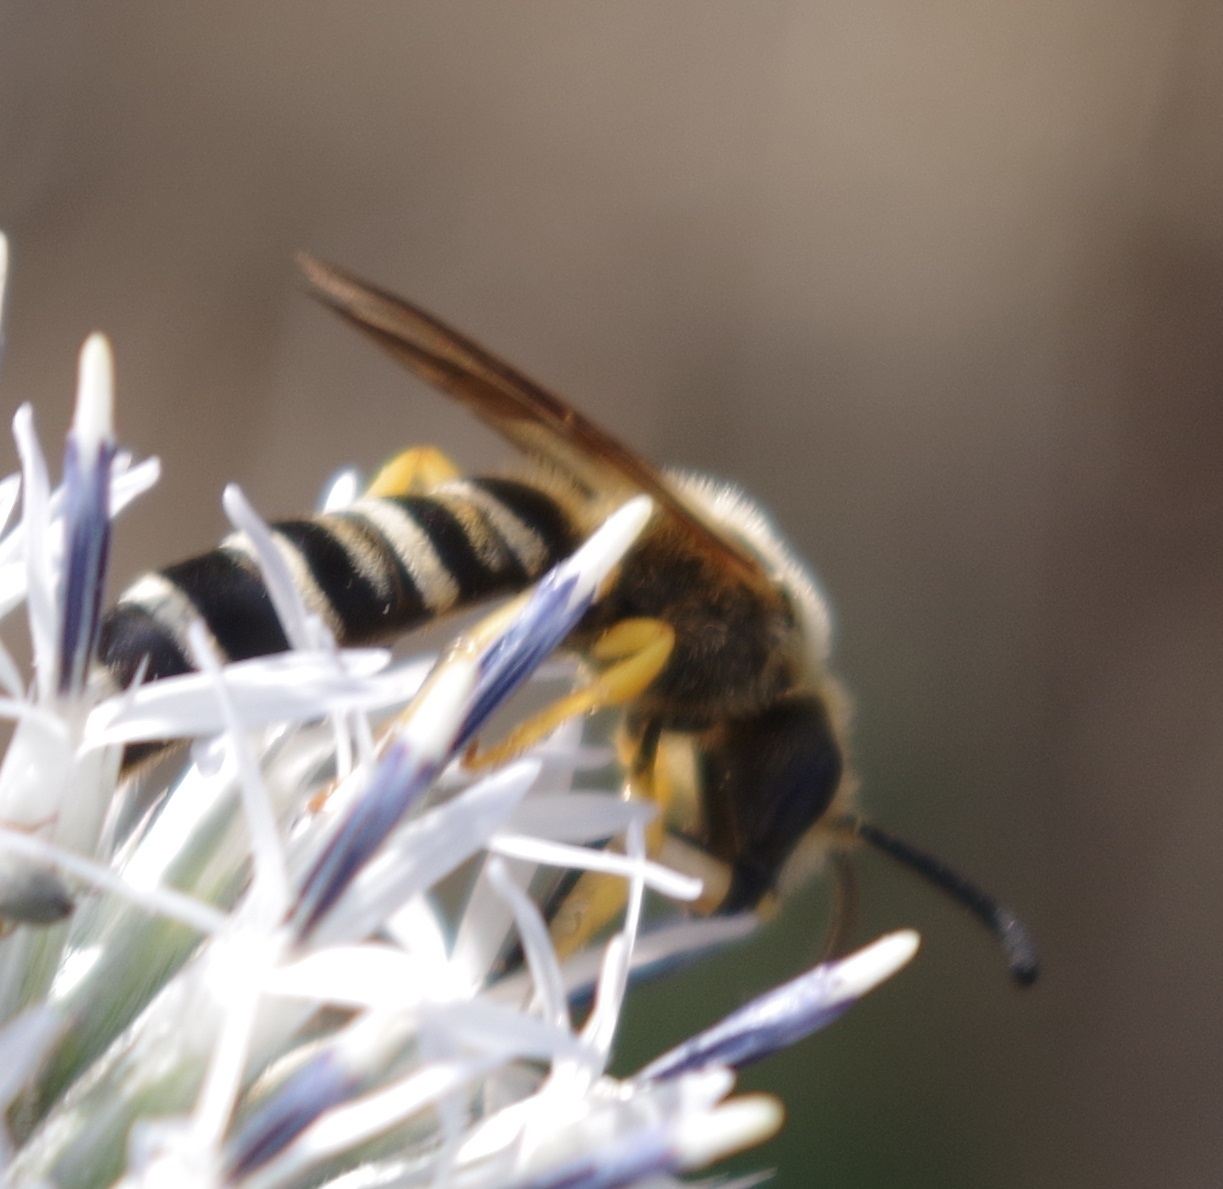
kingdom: Animalia
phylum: Arthropoda
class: Insecta
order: Hymenoptera
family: Halictidae
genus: Halictus
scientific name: Halictus scabiosae
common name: Great banded furrow bee
